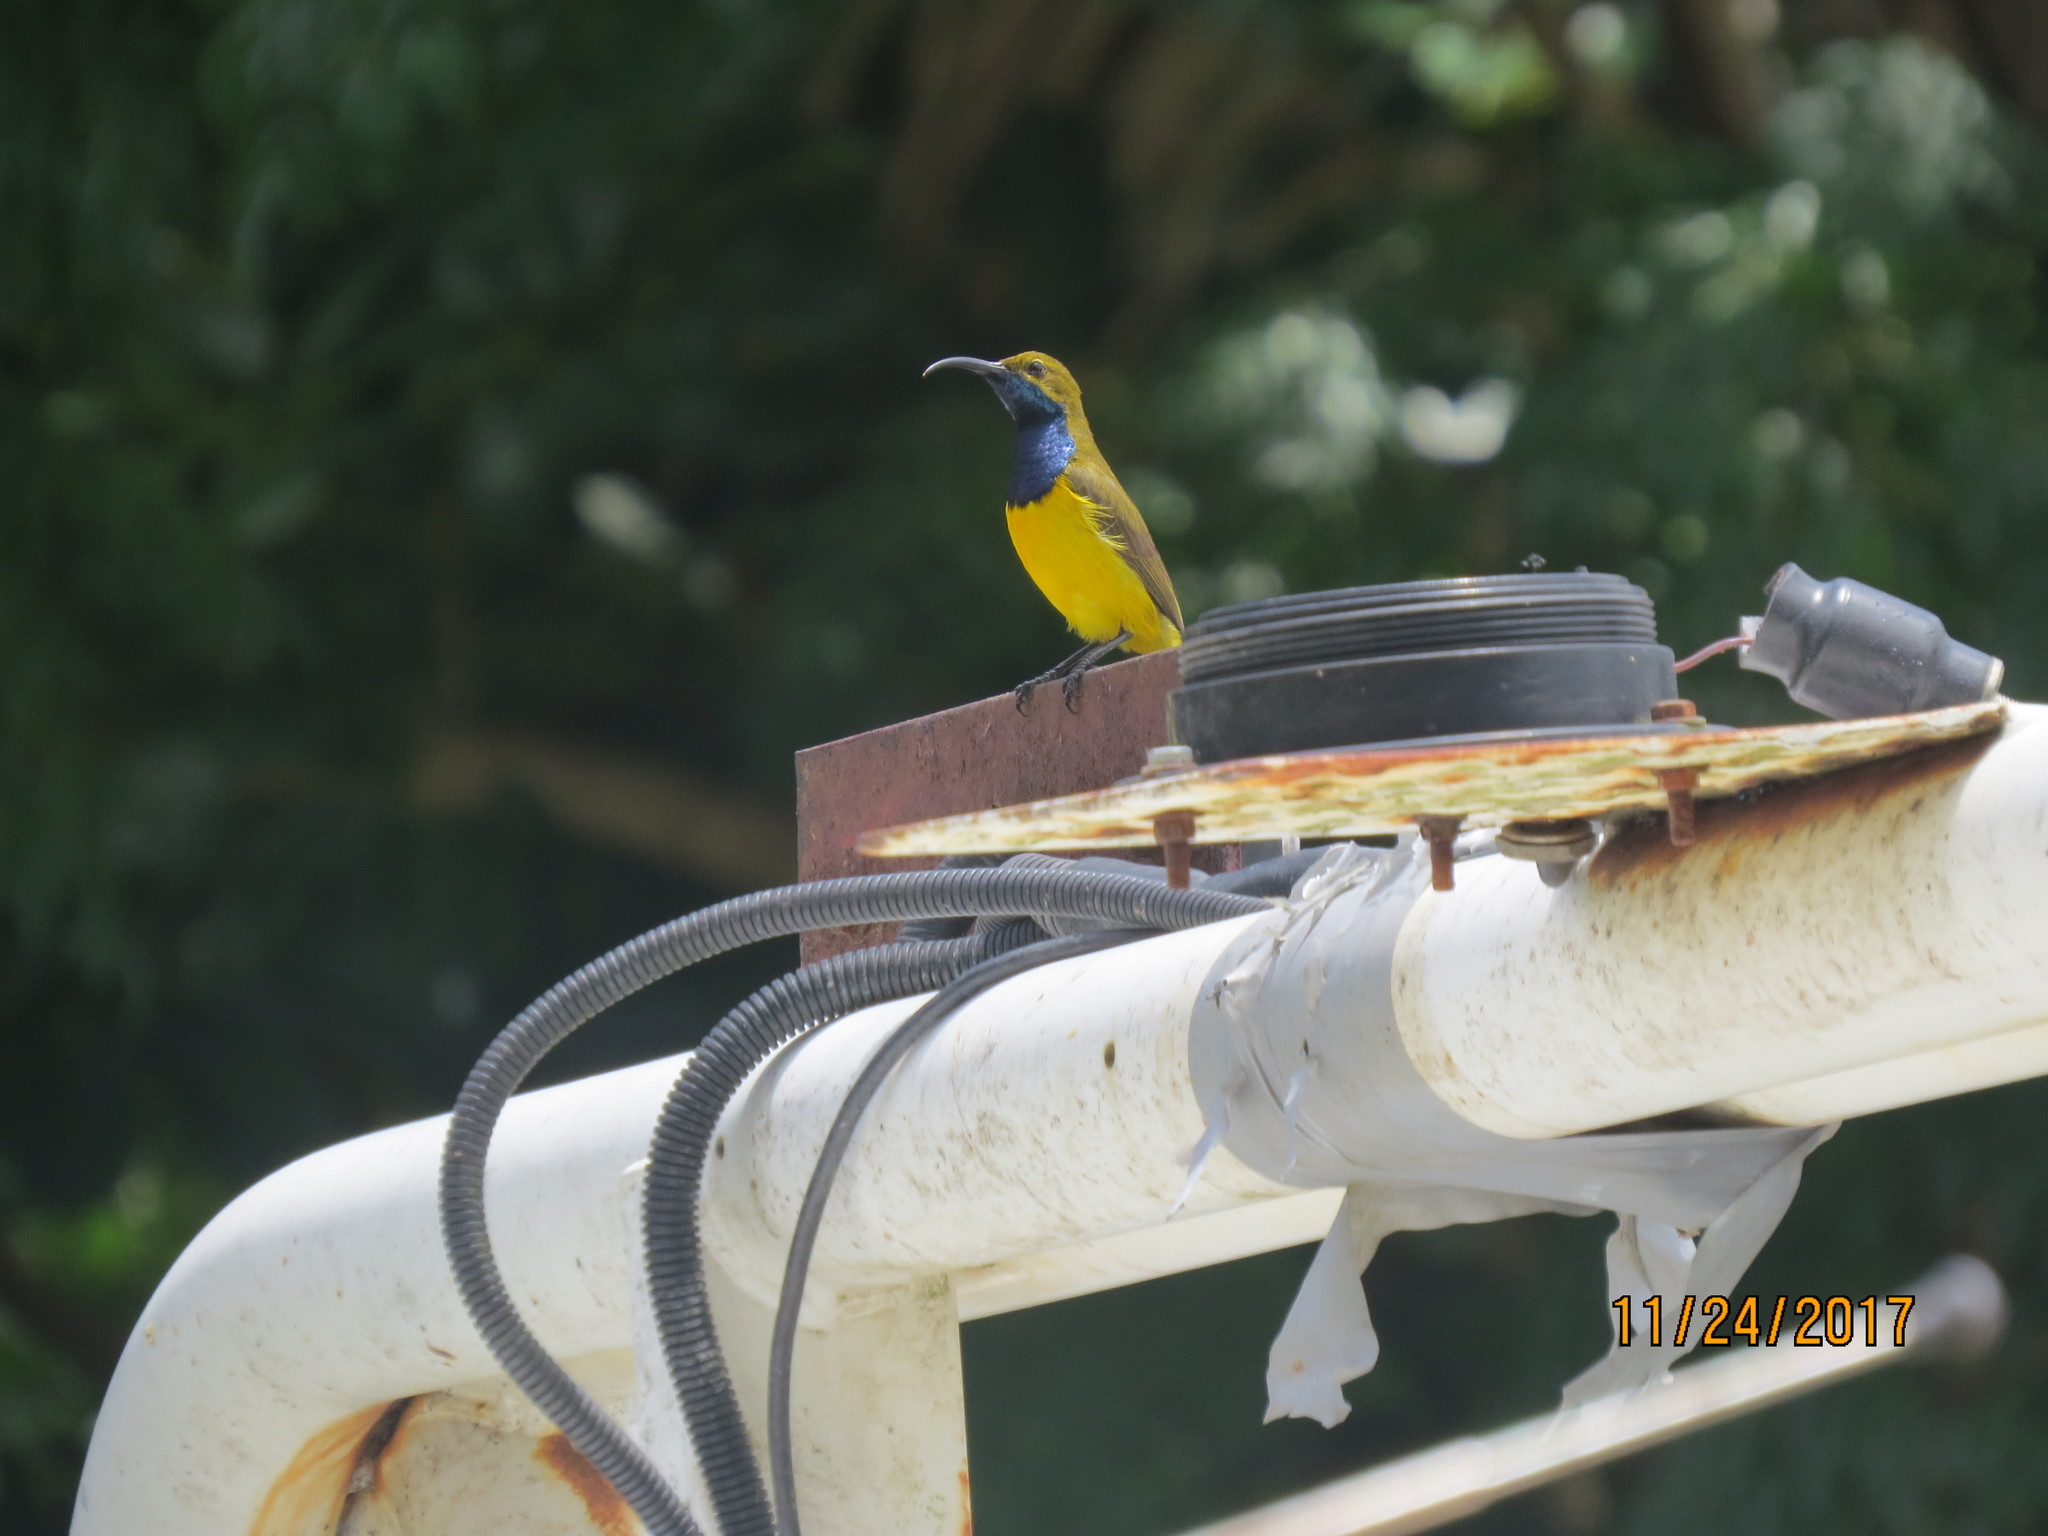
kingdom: Animalia
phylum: Chordata
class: Aves
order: Passeriformes
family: Nectariniidae
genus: Cinnyris
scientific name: Cinnyris
